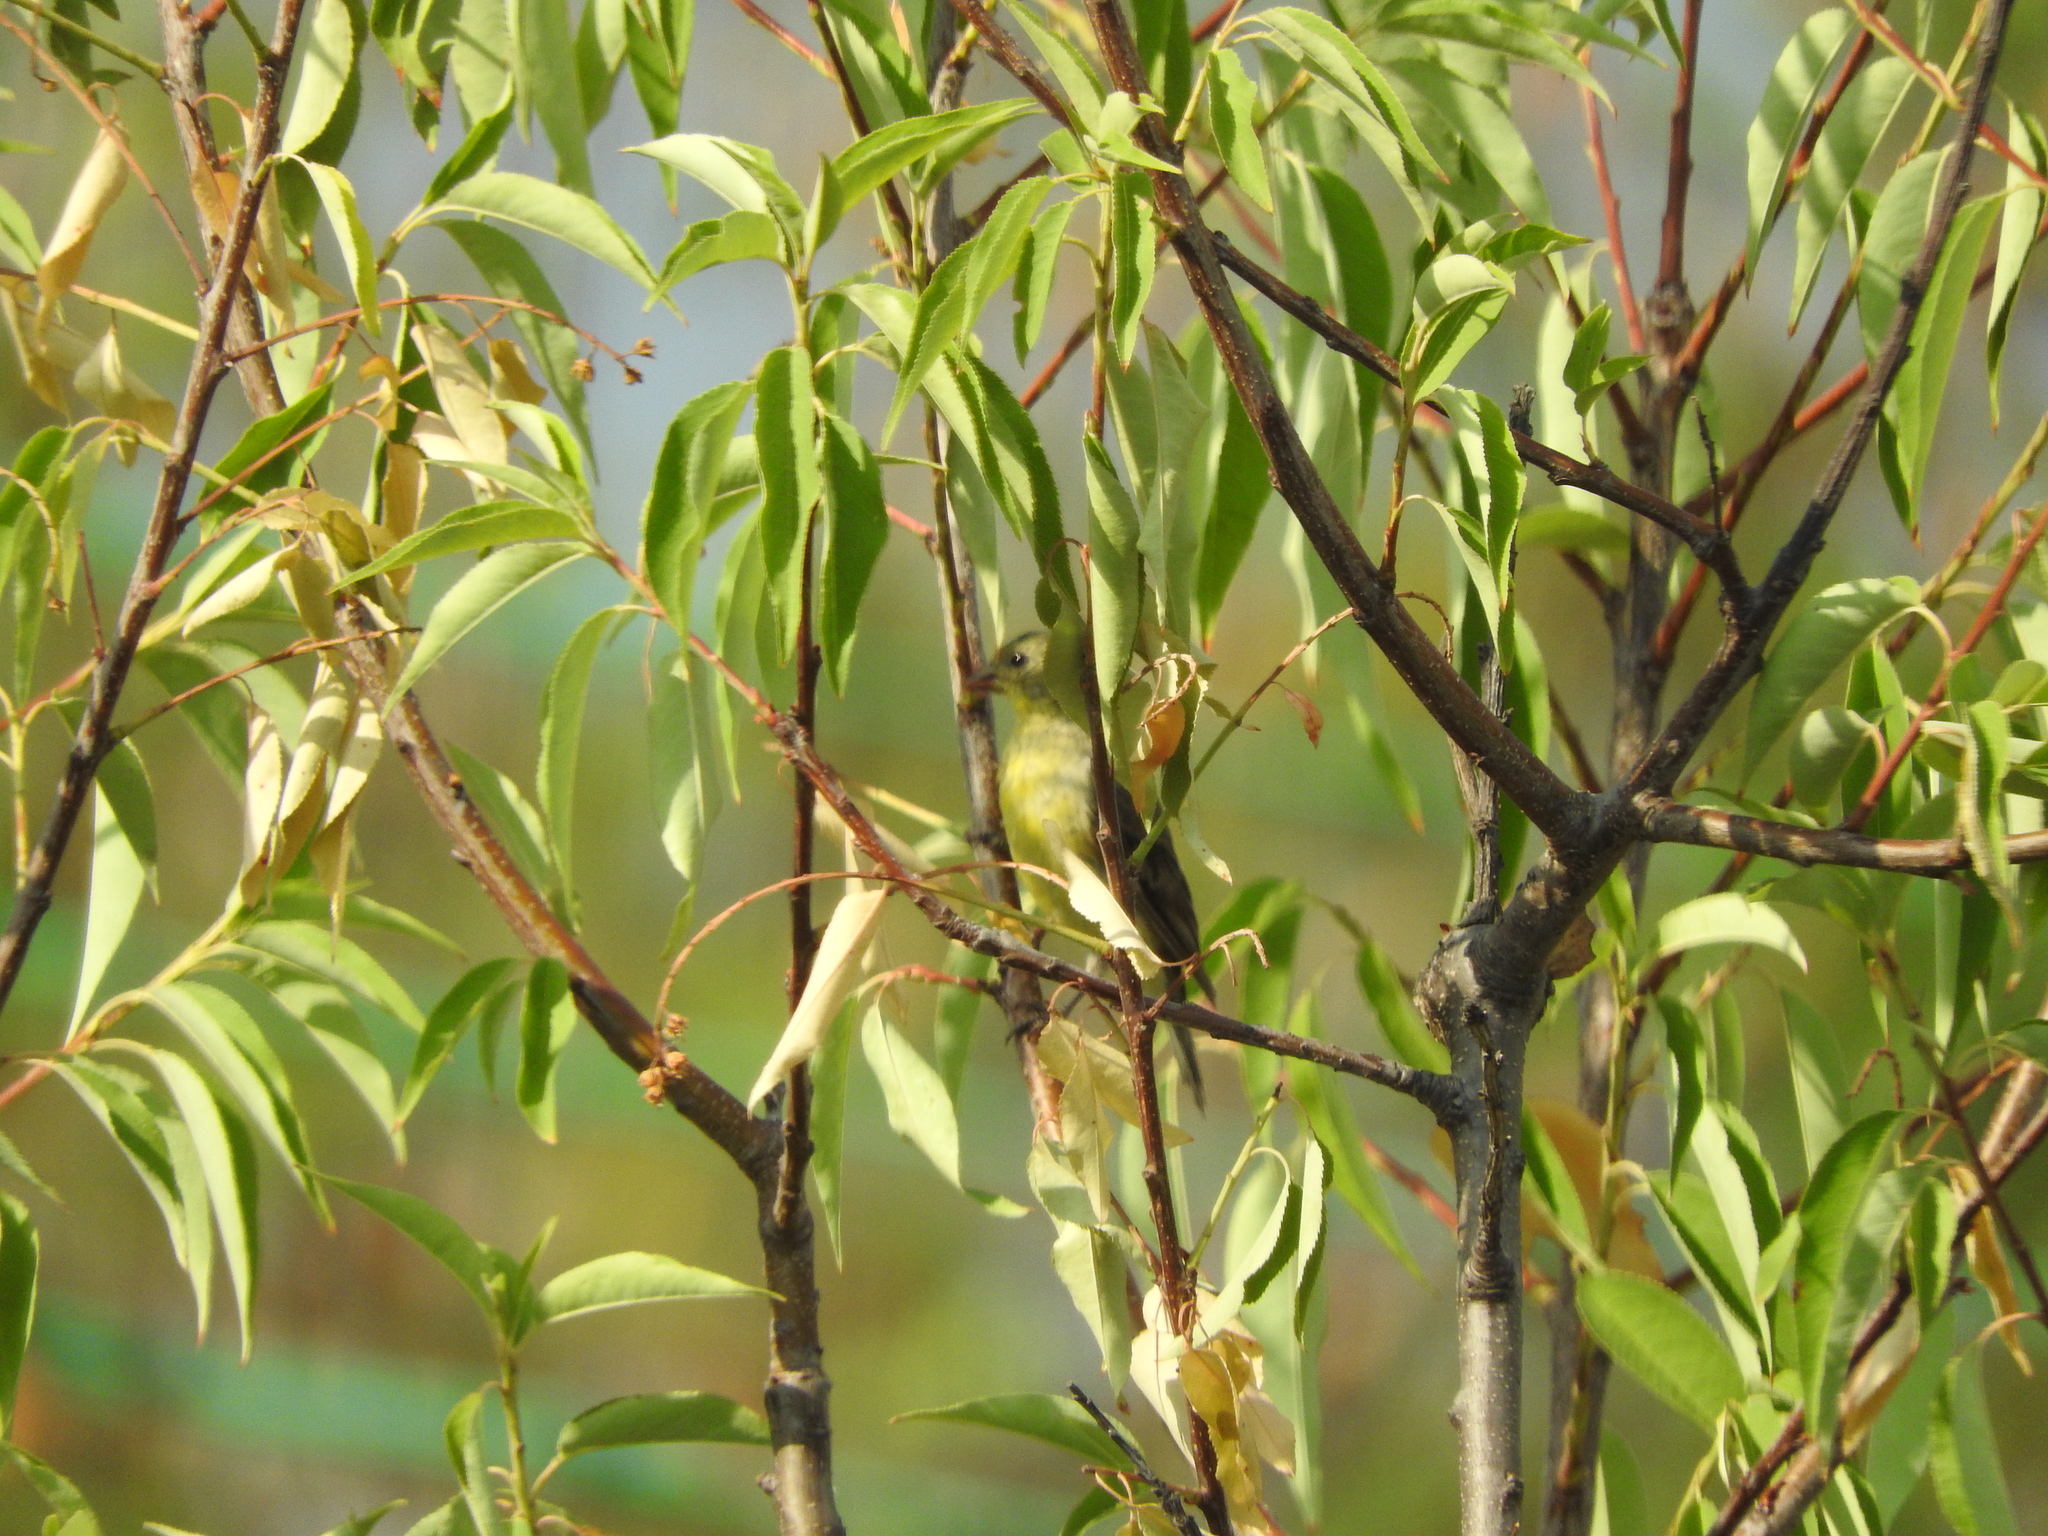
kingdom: Animalia
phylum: Chordata
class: Aves
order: Passeriformes
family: Fringillidae
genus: Spinus
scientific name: Spinus psaltria
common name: Lesser goldfinch
